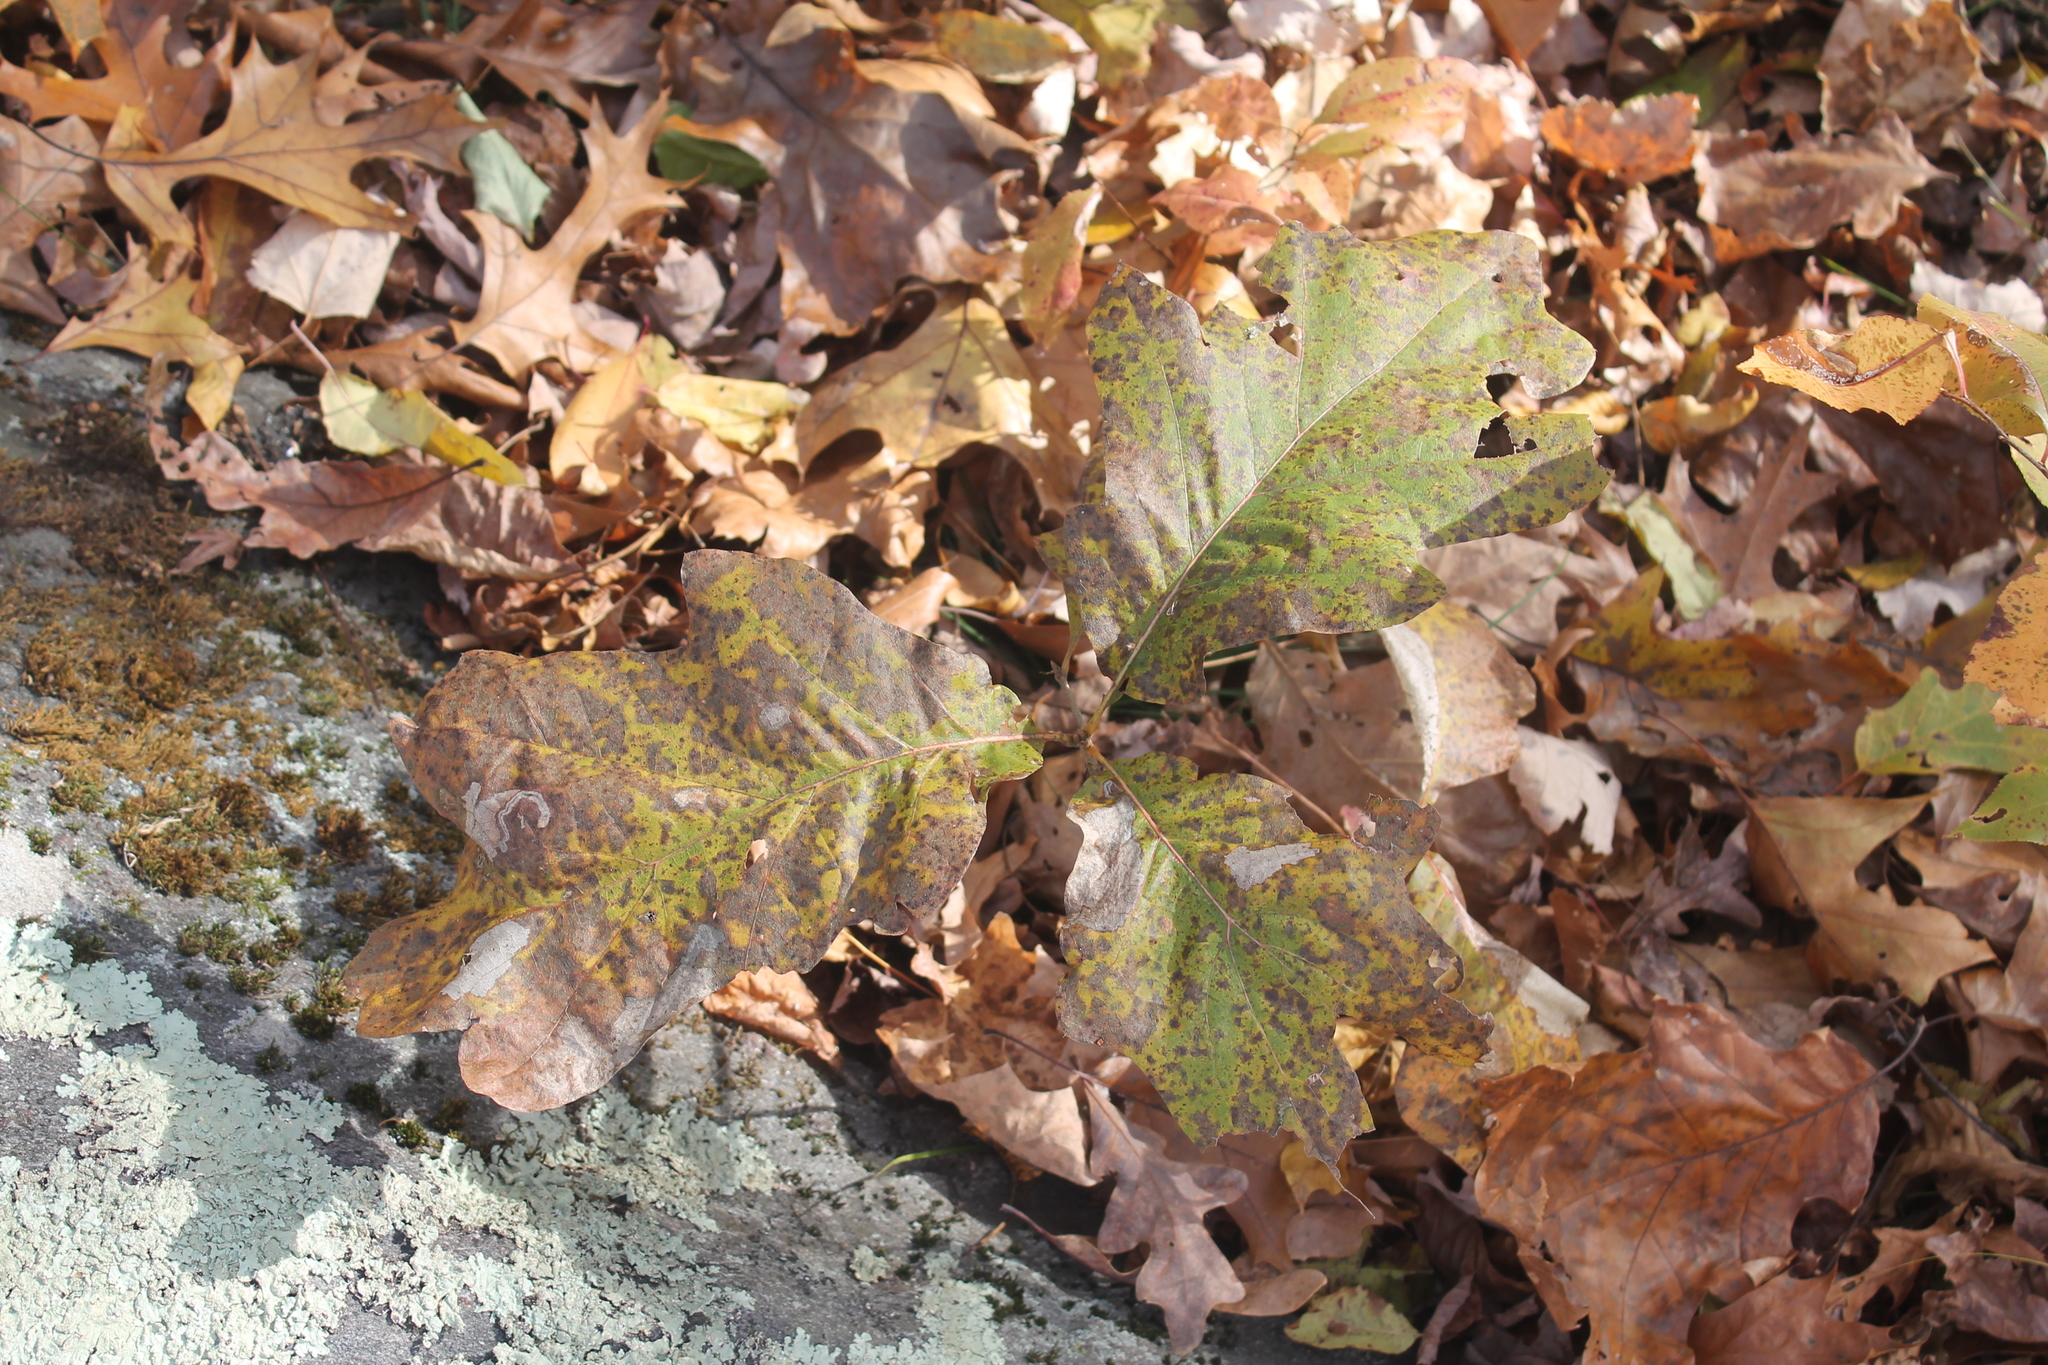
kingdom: Plantae
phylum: Tracheophyta
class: Magnoliopsida
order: Fagales
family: Fagaceae
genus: Quercus
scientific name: Quercus velutina
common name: Black oak
